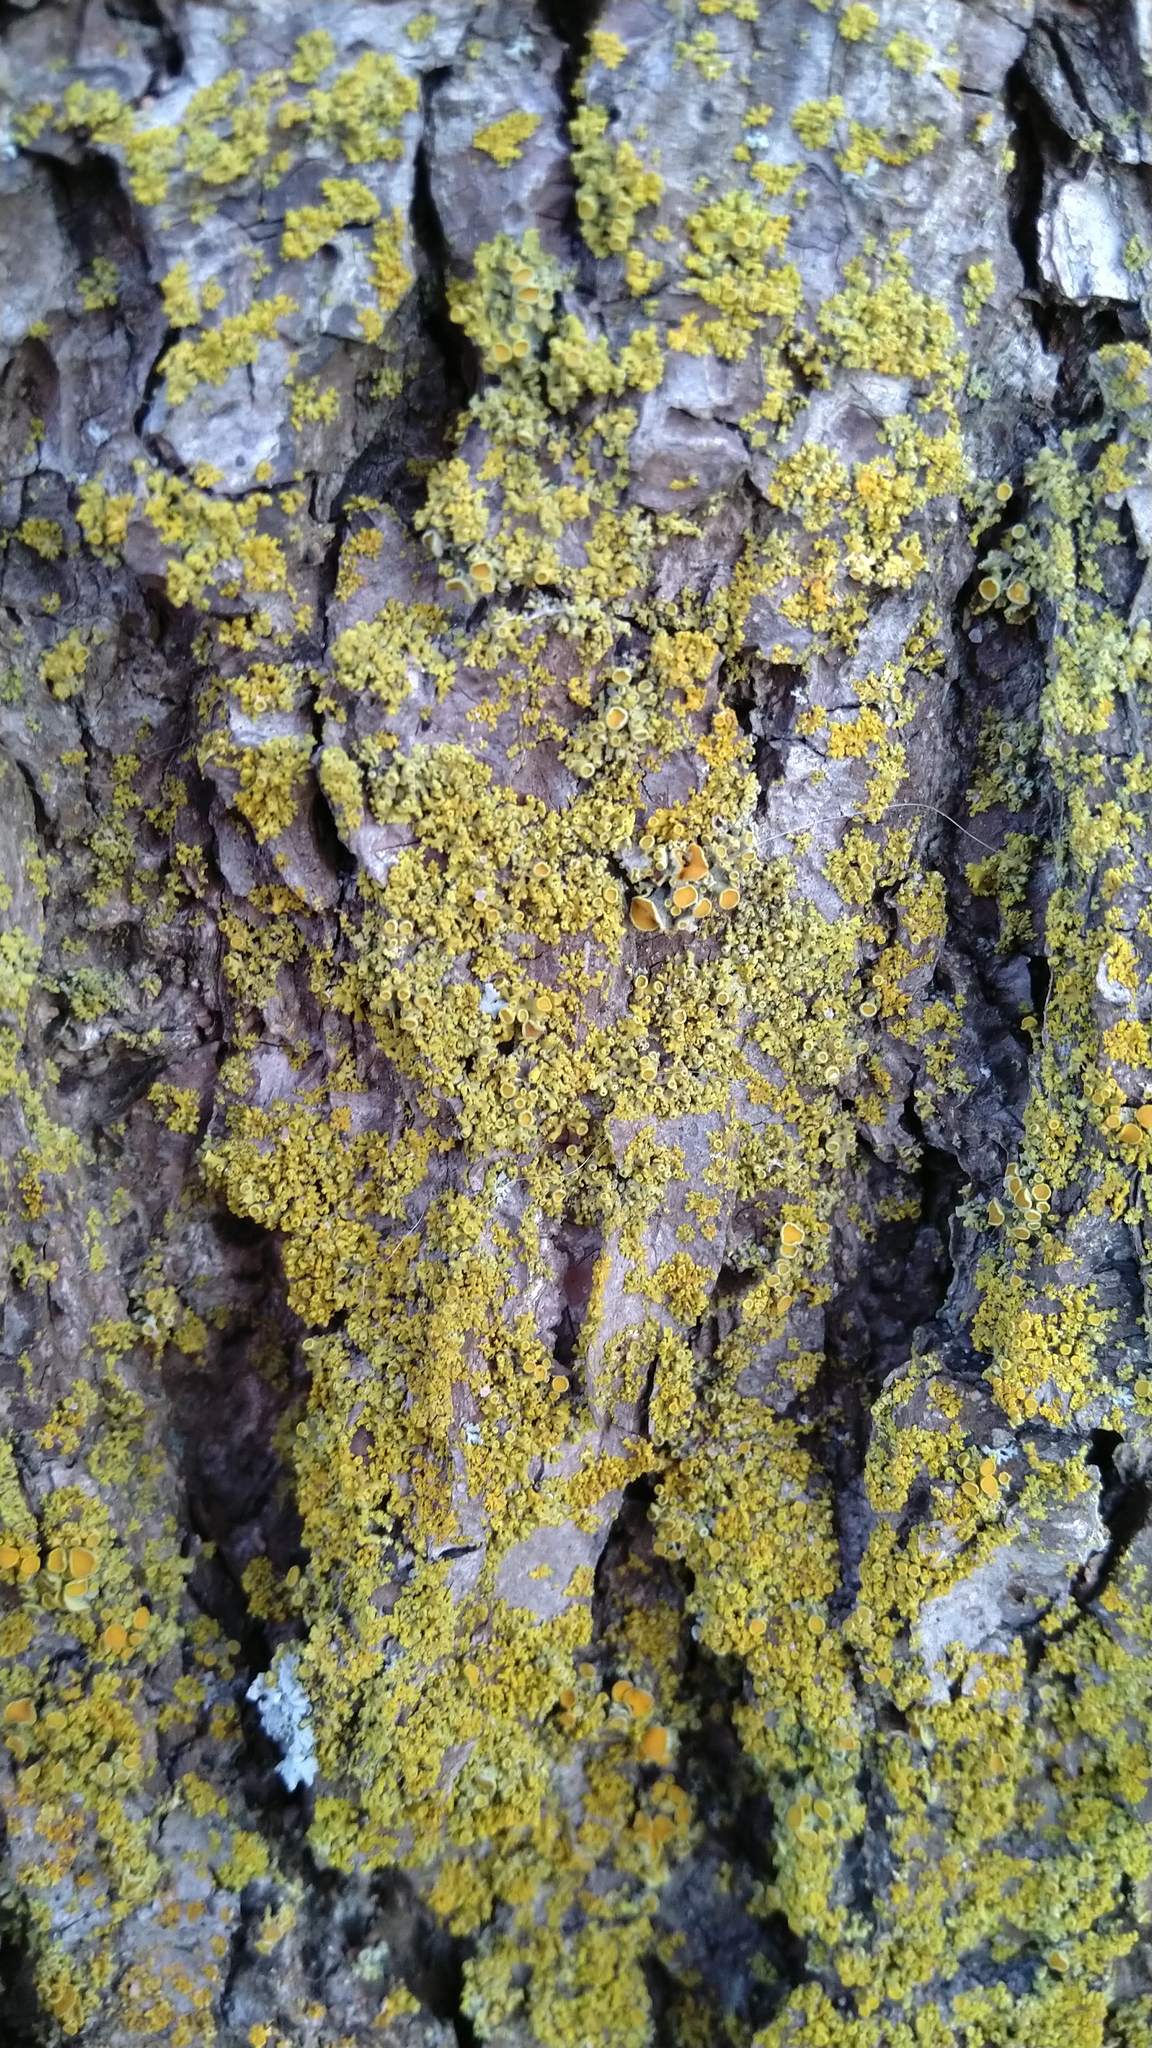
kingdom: Fungi
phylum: Ascomycota
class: Lecanoromycetes
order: Teloschistales
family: Teloschistaceae
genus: Polycauliona
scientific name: Polycauliona polycarpa
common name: Pin-cushion sunburst lichen
